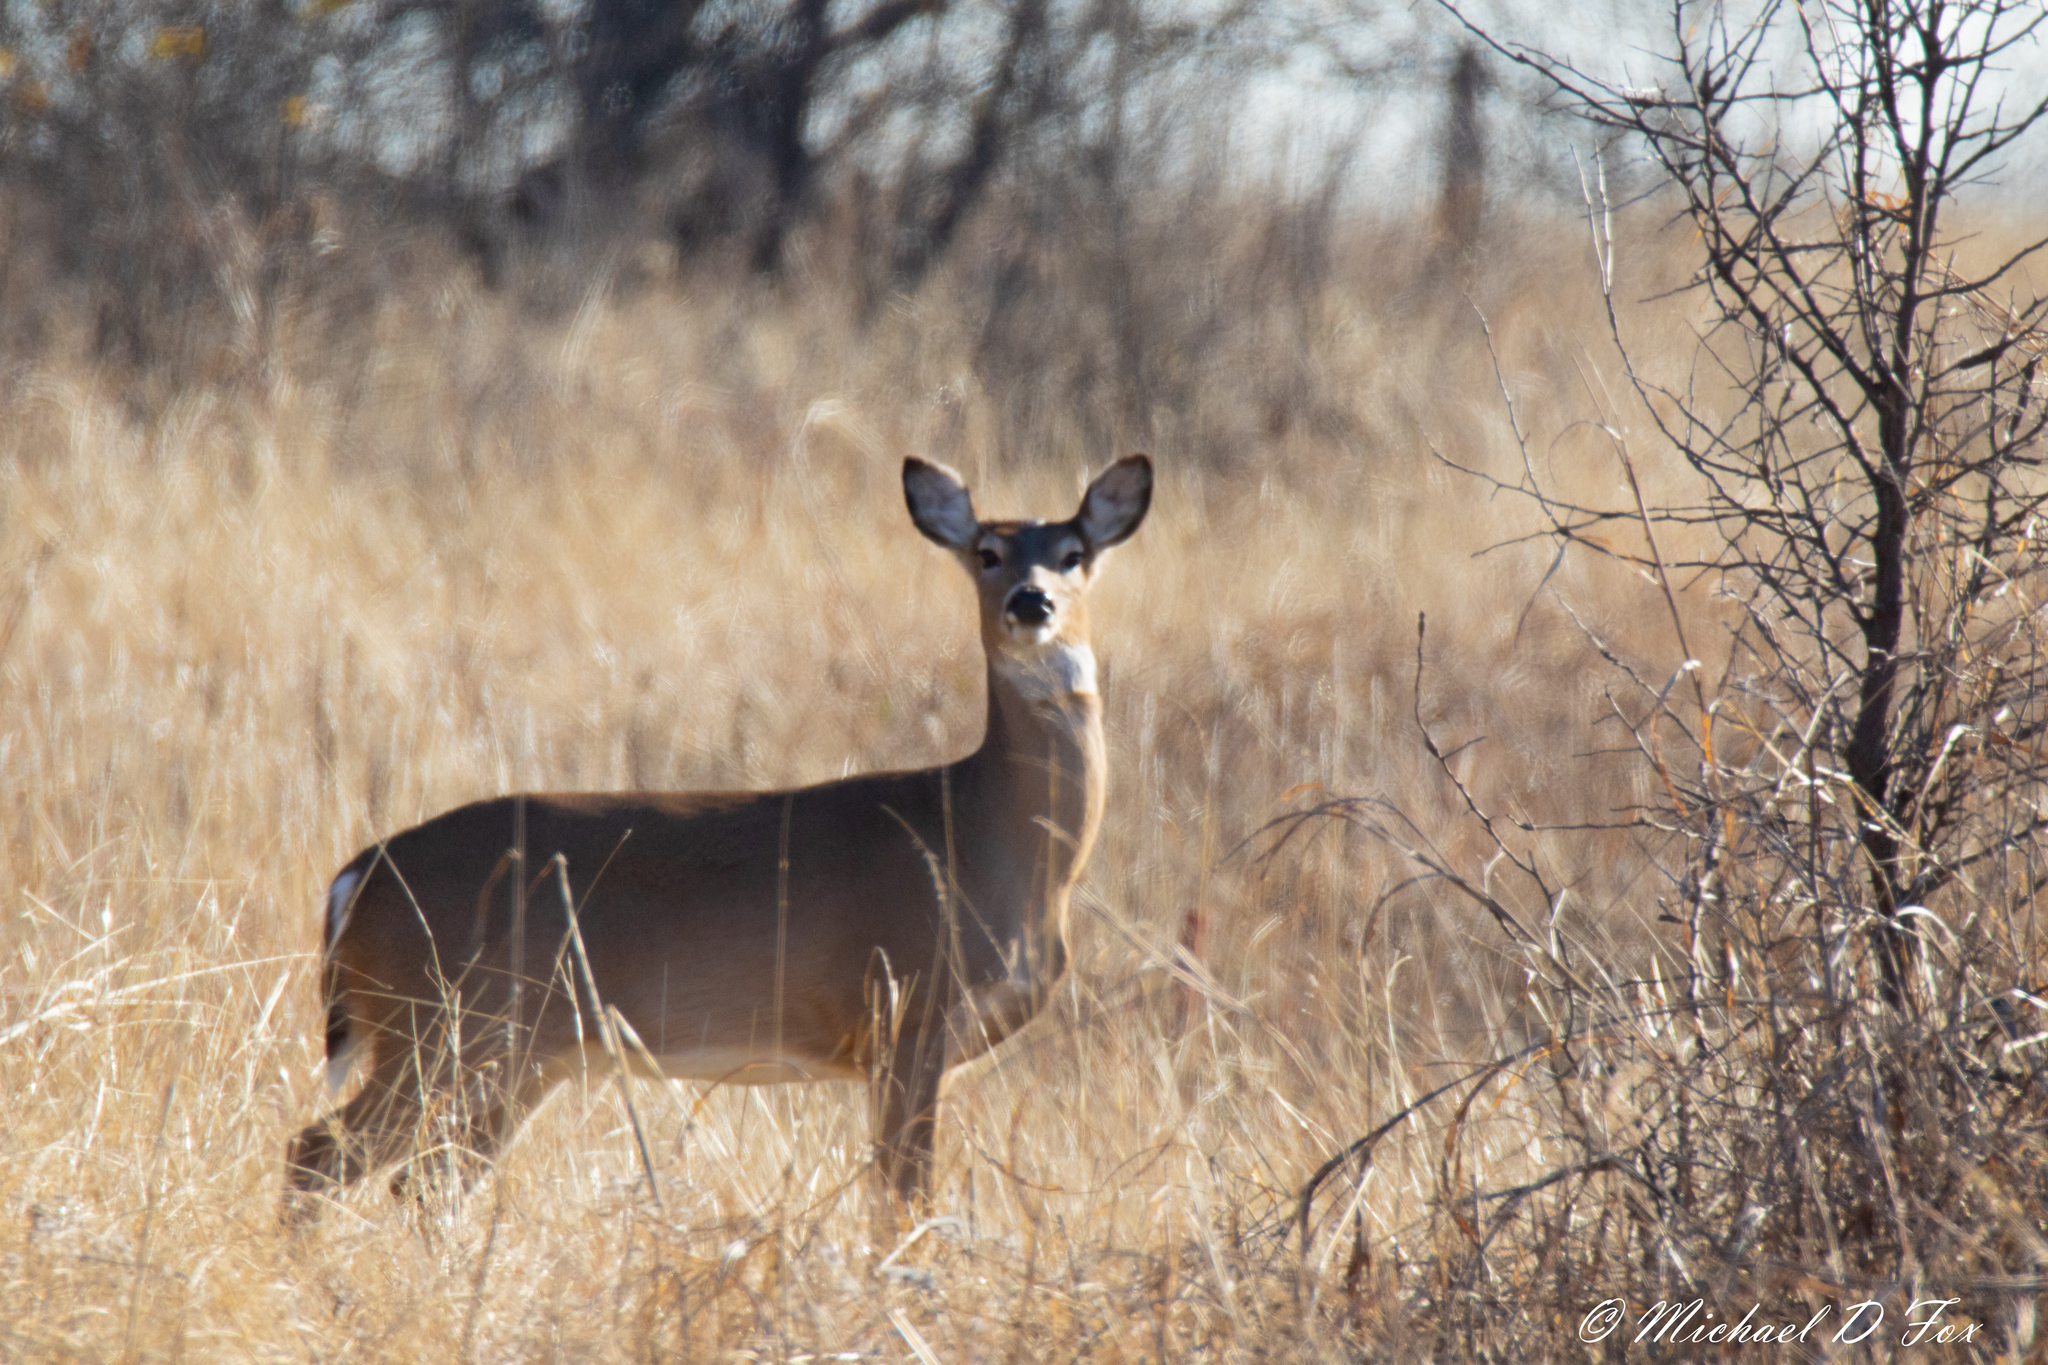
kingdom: Animalia
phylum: Chordata
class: Mammalia
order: Artiodactyla
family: Cervidae
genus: Odocoileus
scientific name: Odocoileus virginianus
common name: White-tailed deer
